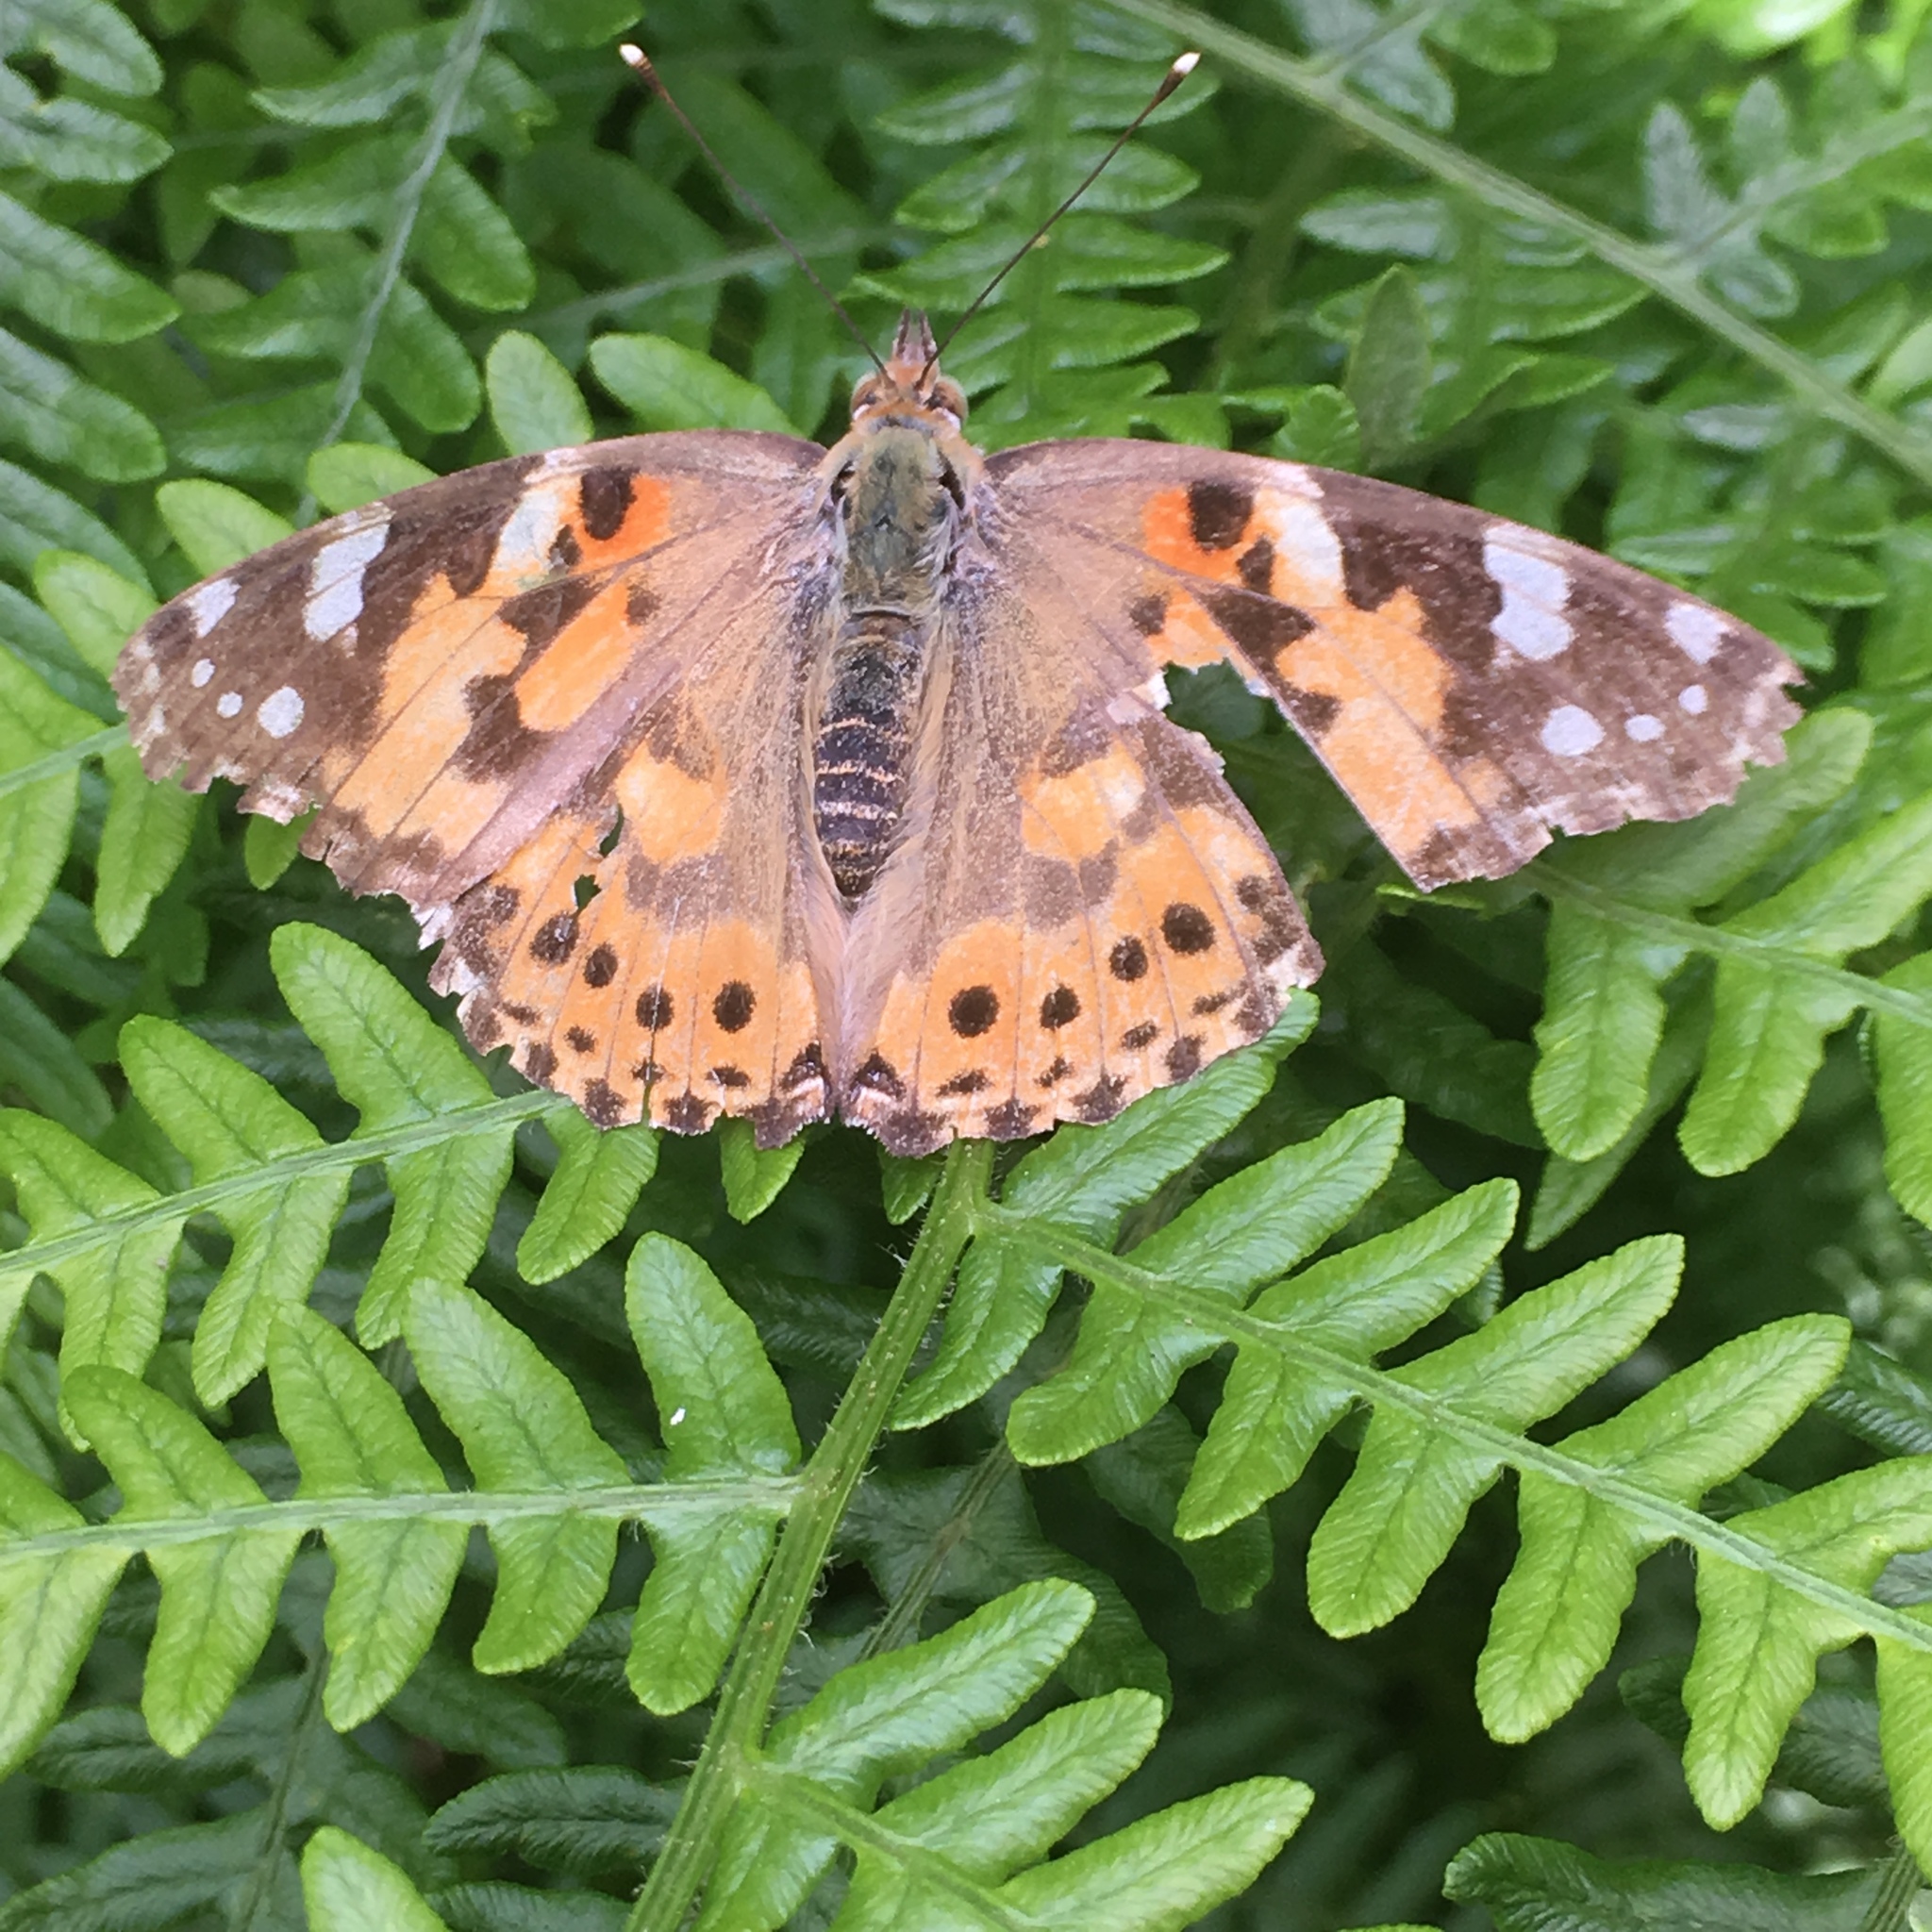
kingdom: Animalia
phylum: Arthropoda
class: Insecta
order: Lepidoptera
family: Nymphalidae
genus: Vanessa
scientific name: Vanessa cardui
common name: Painted lady
